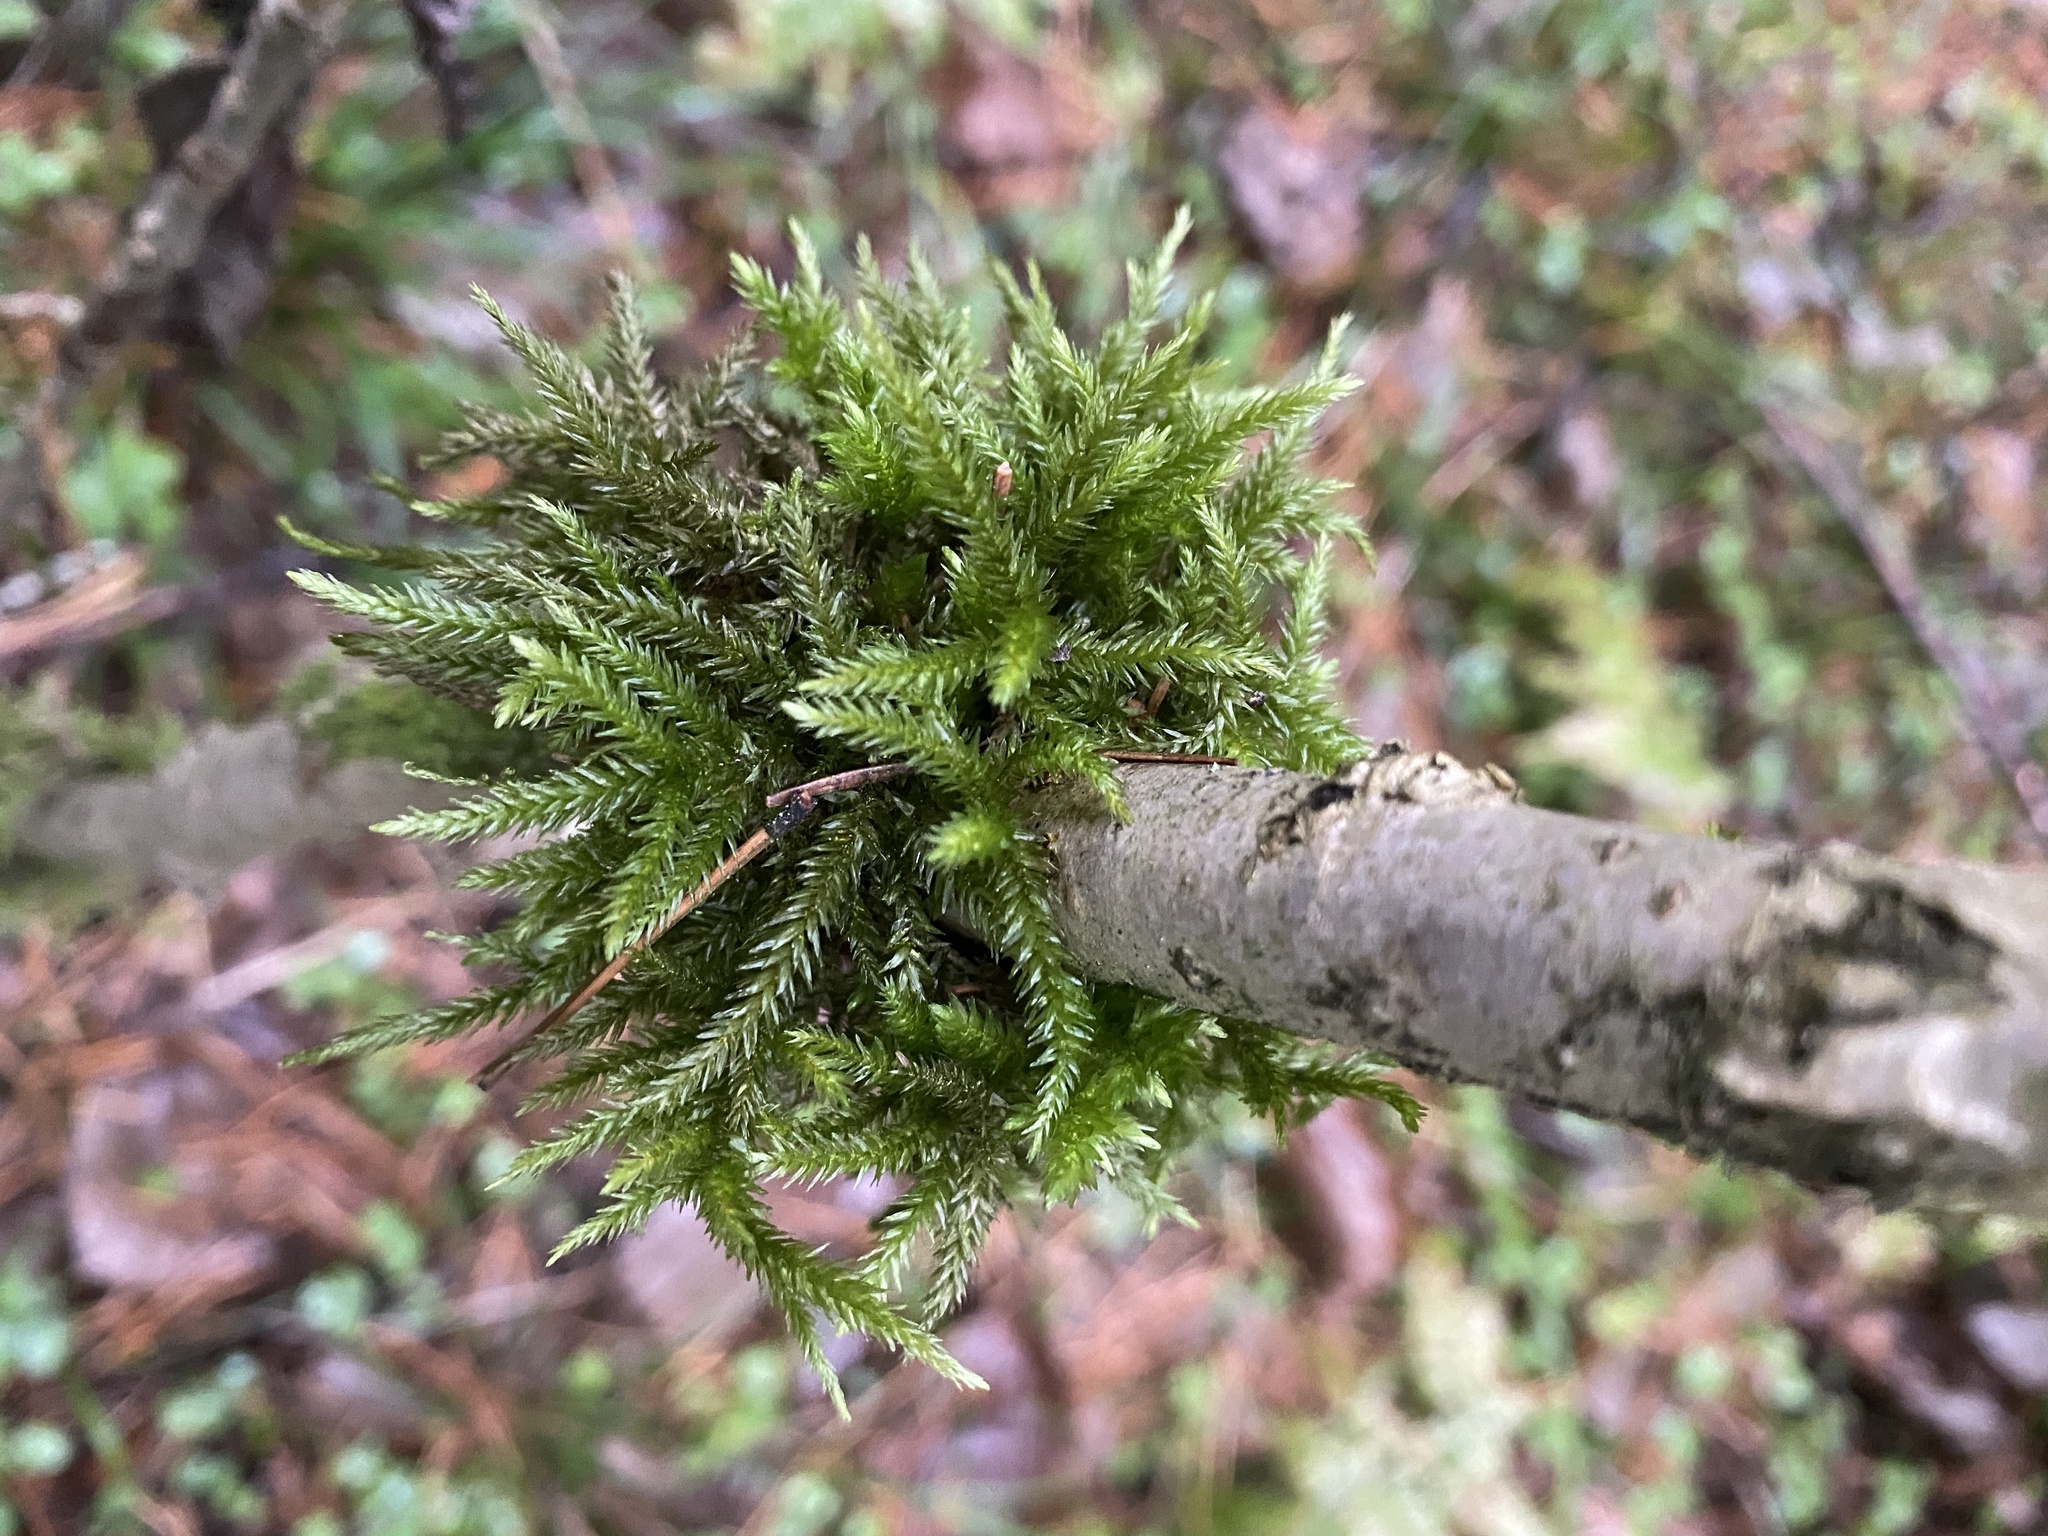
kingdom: Plantae
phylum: Bryophyta
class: Bryopsida
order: Hypnales
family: Climaciaceae
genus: Climacium
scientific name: Climacium dendroides
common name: Northern tree moss
